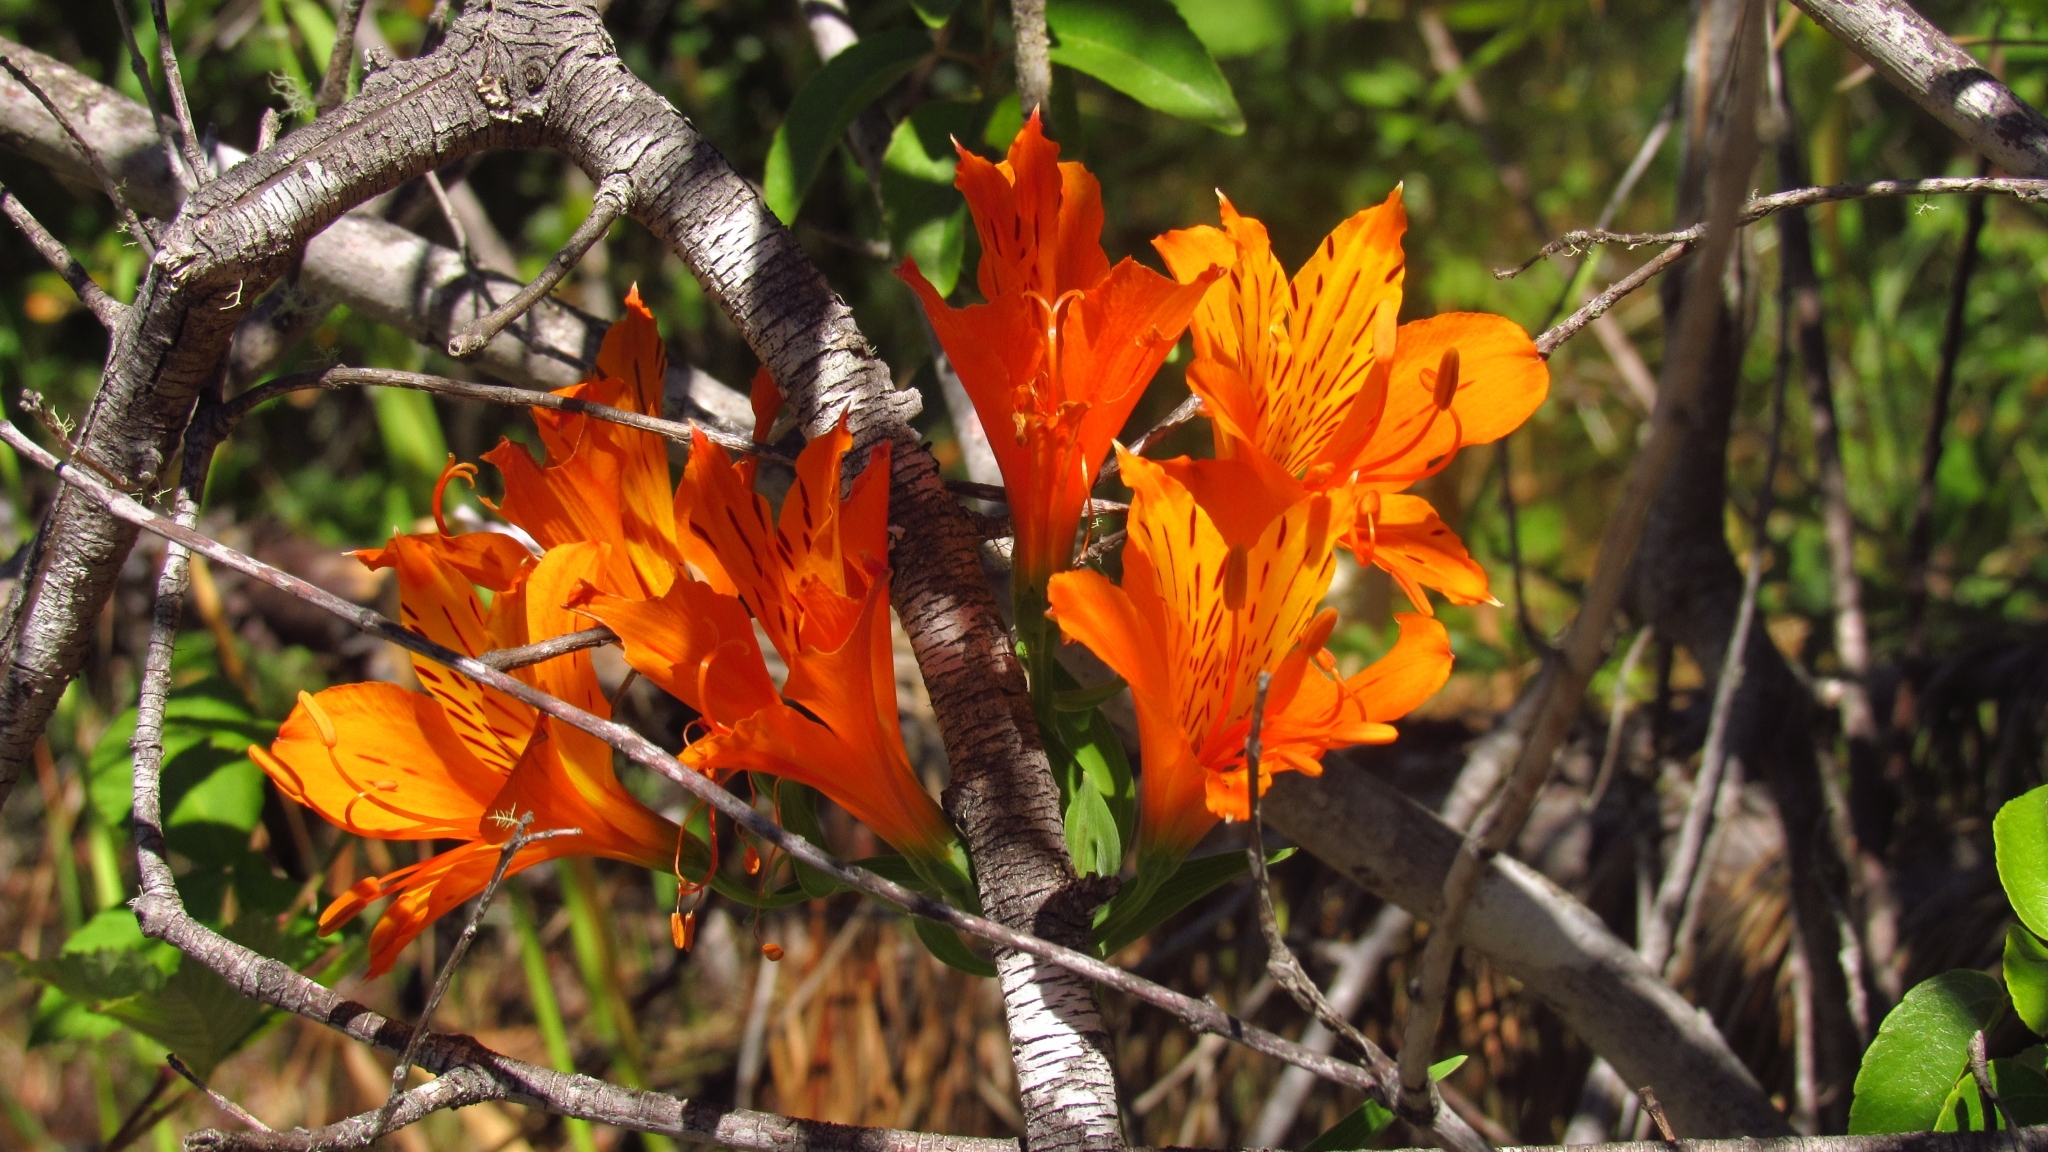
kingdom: Plantae
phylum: Tracheophyta
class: Liliopsida
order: Liliales
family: Alstroemeriaceae
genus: Alstroemeria
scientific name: Alstroemeria aurea
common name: Peruvian lily
